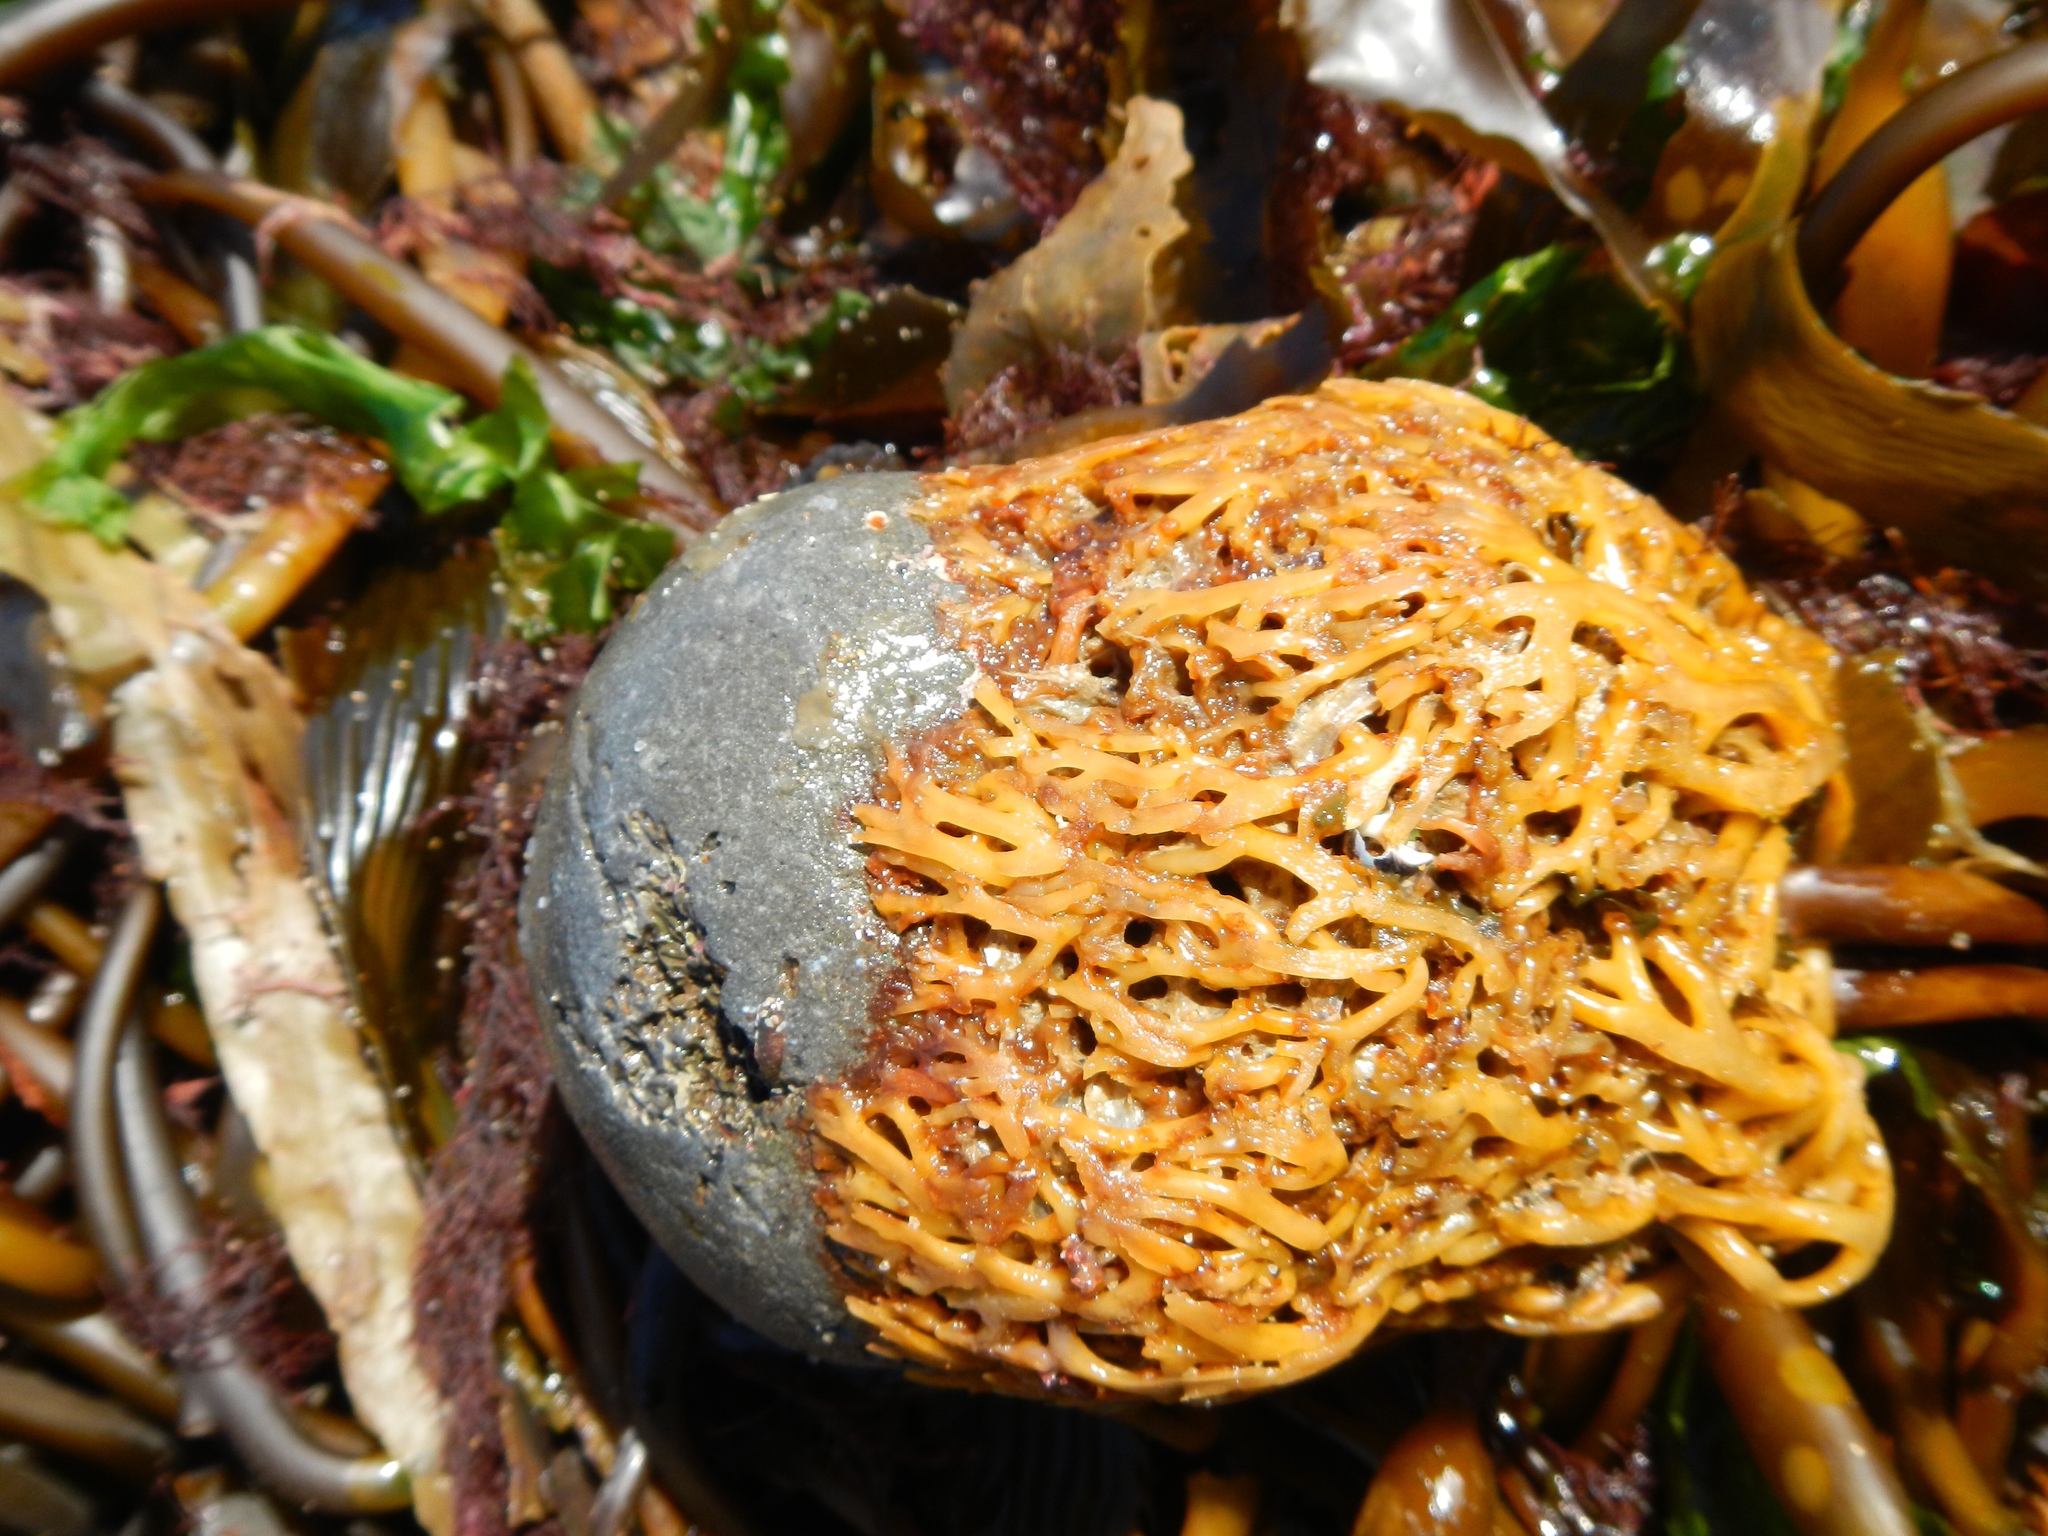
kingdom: Chromista
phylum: Ochrophyta
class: Phaeophyceae
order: Laminariales
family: Laminariaceae
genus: Macrocystis
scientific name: Macrocystis pyrifera
